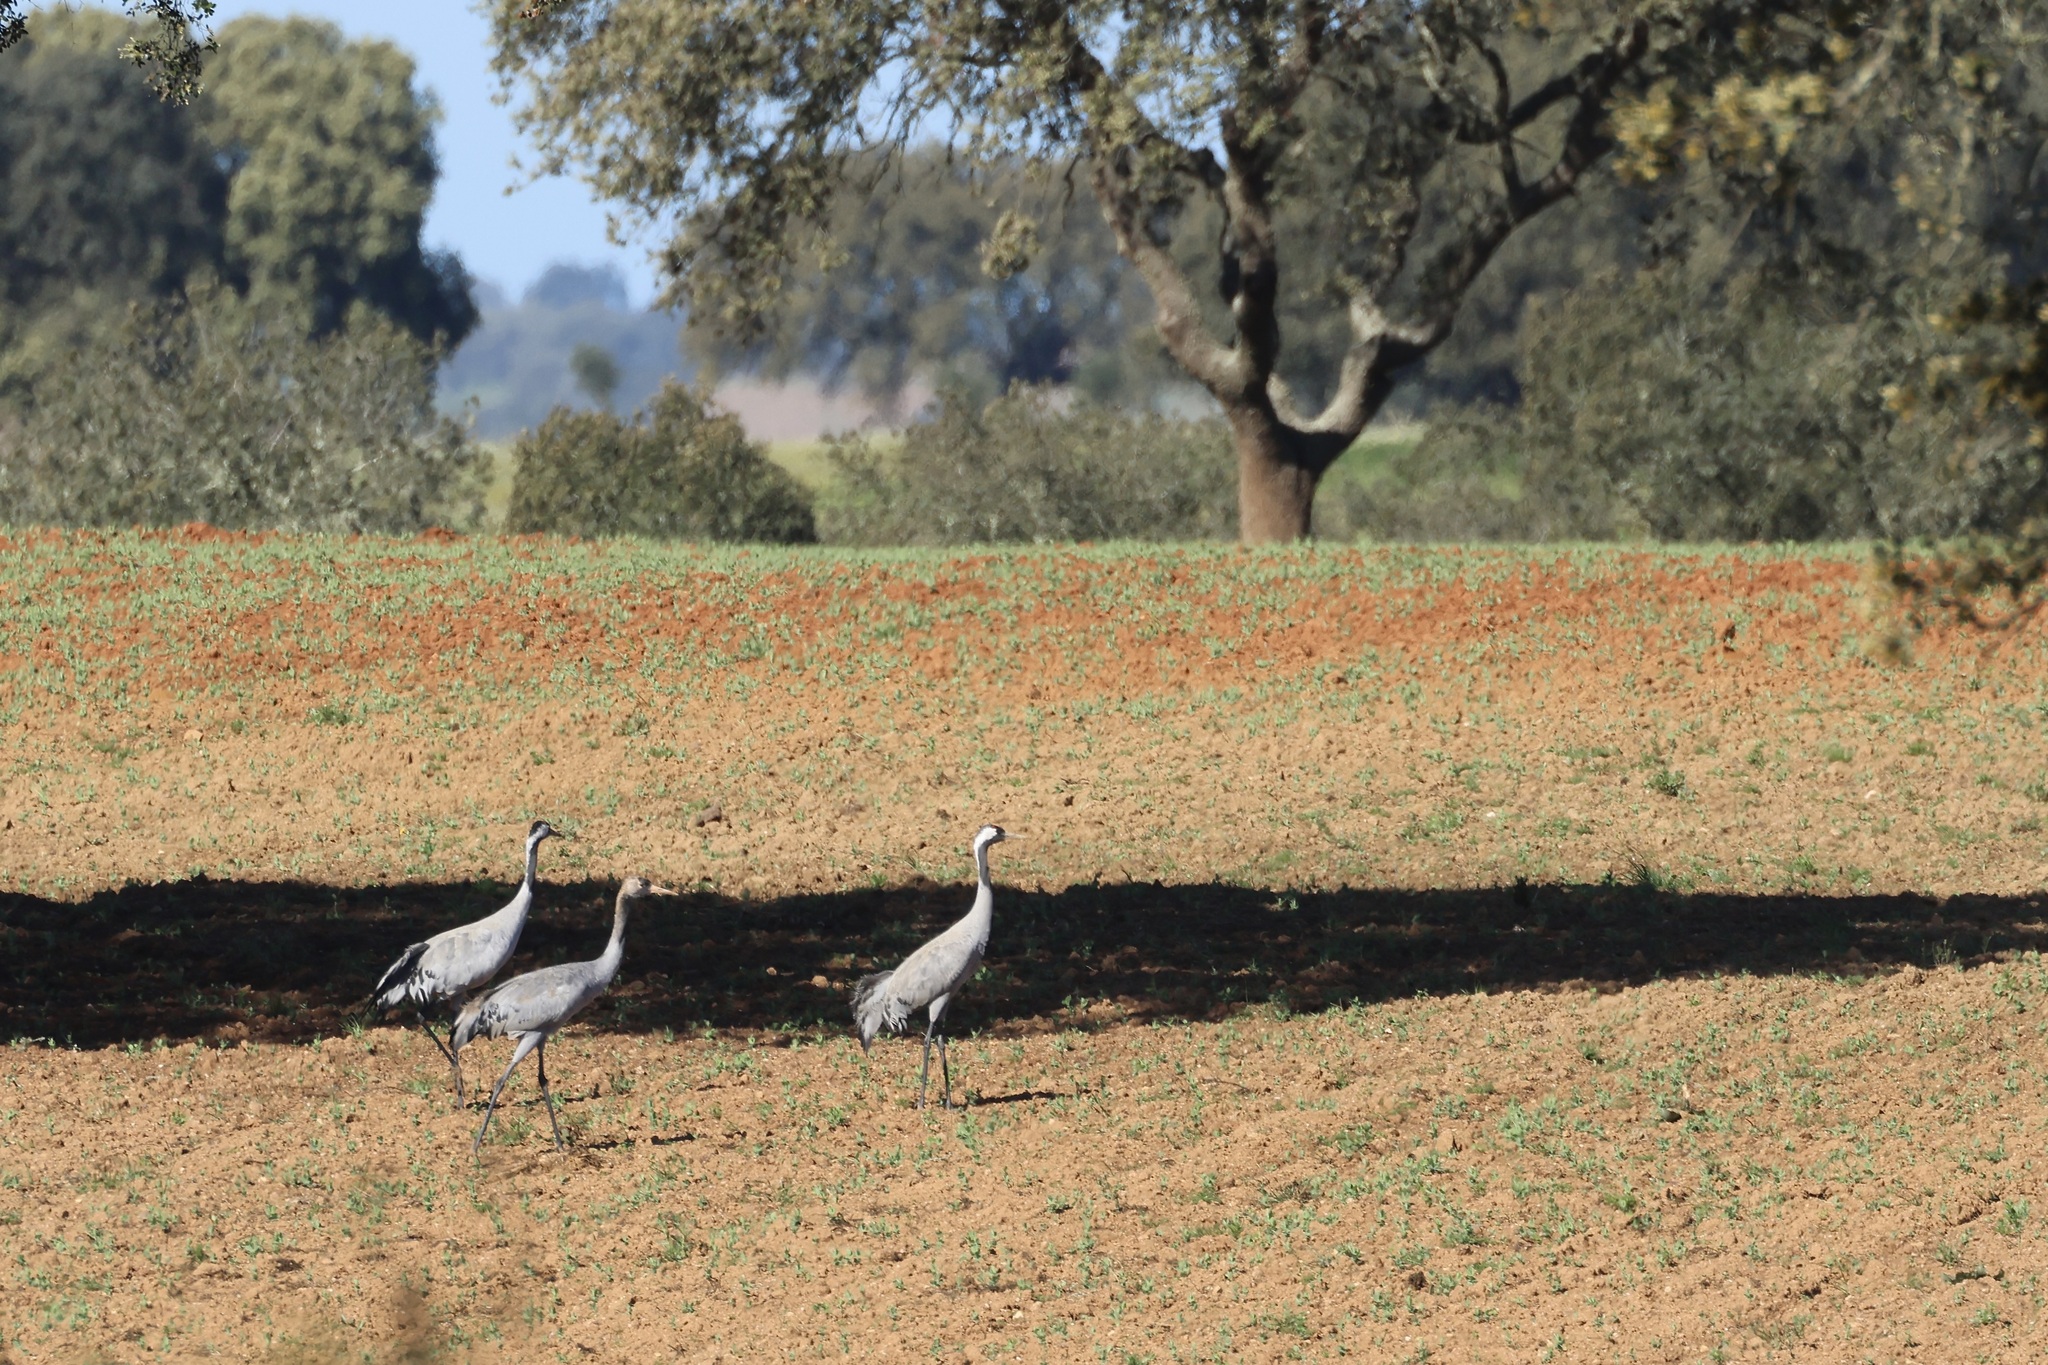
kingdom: Animalia
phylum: Chordata
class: Aves
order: Gruiformes
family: Gruidae
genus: Grus
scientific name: Grus grus
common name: Common crane
